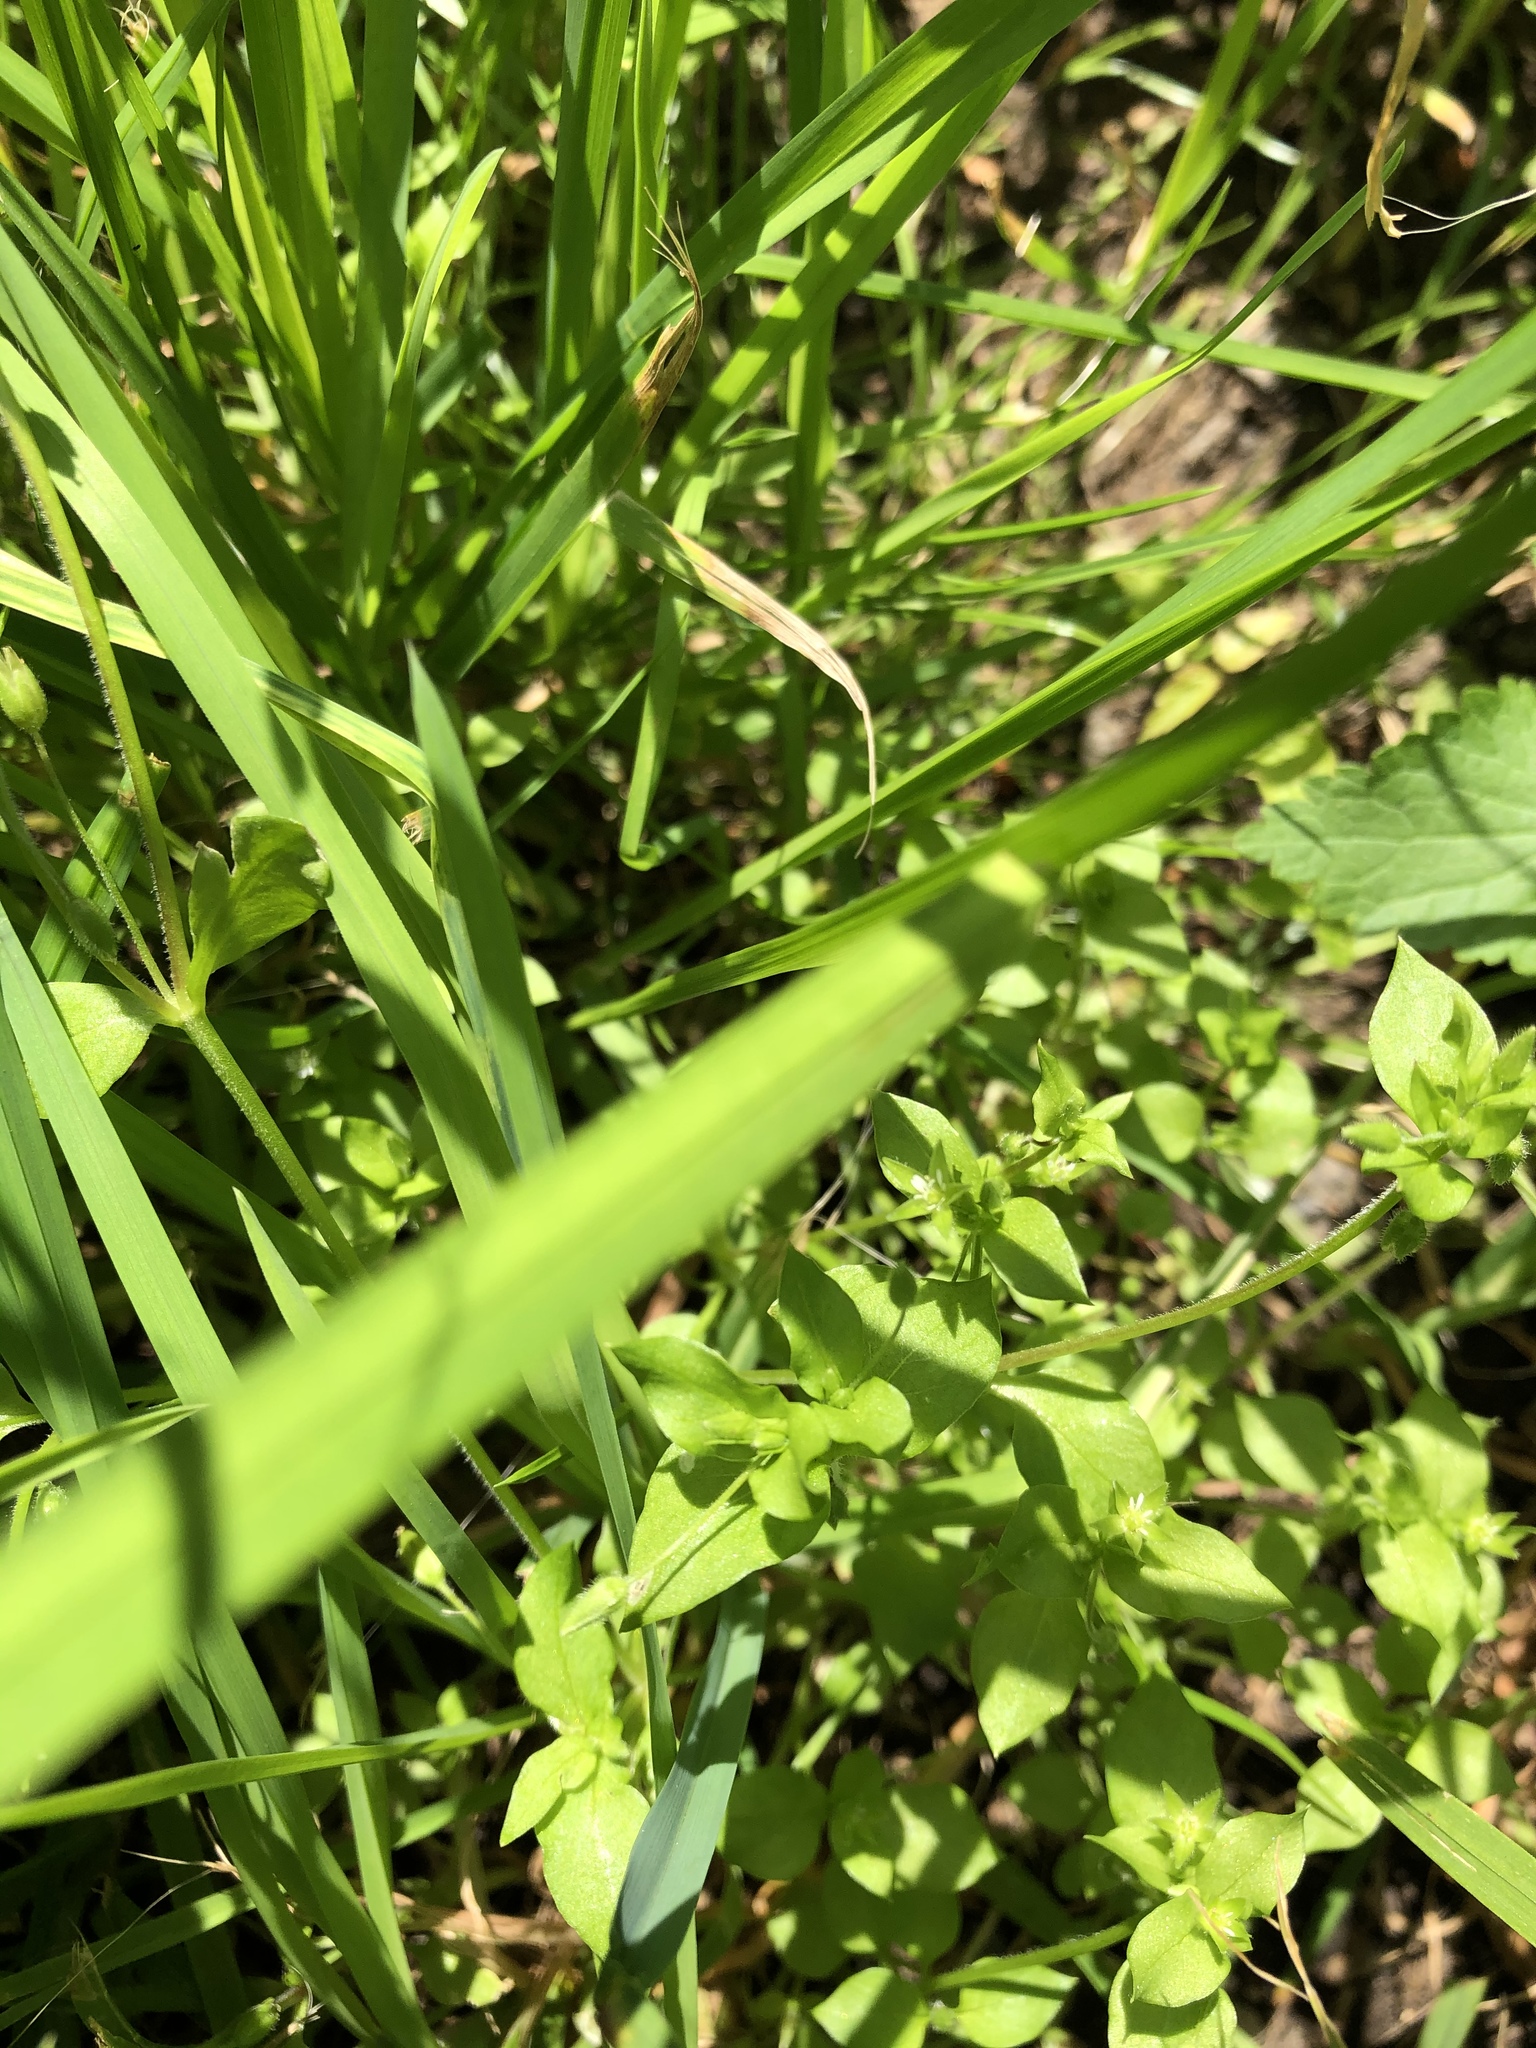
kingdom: Plantae
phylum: Tracheophyta
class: Magnoliopsida
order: Caryophyllales
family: Caryophyllaceae
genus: Stellaria
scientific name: Stellaria media
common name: Common chickweed
